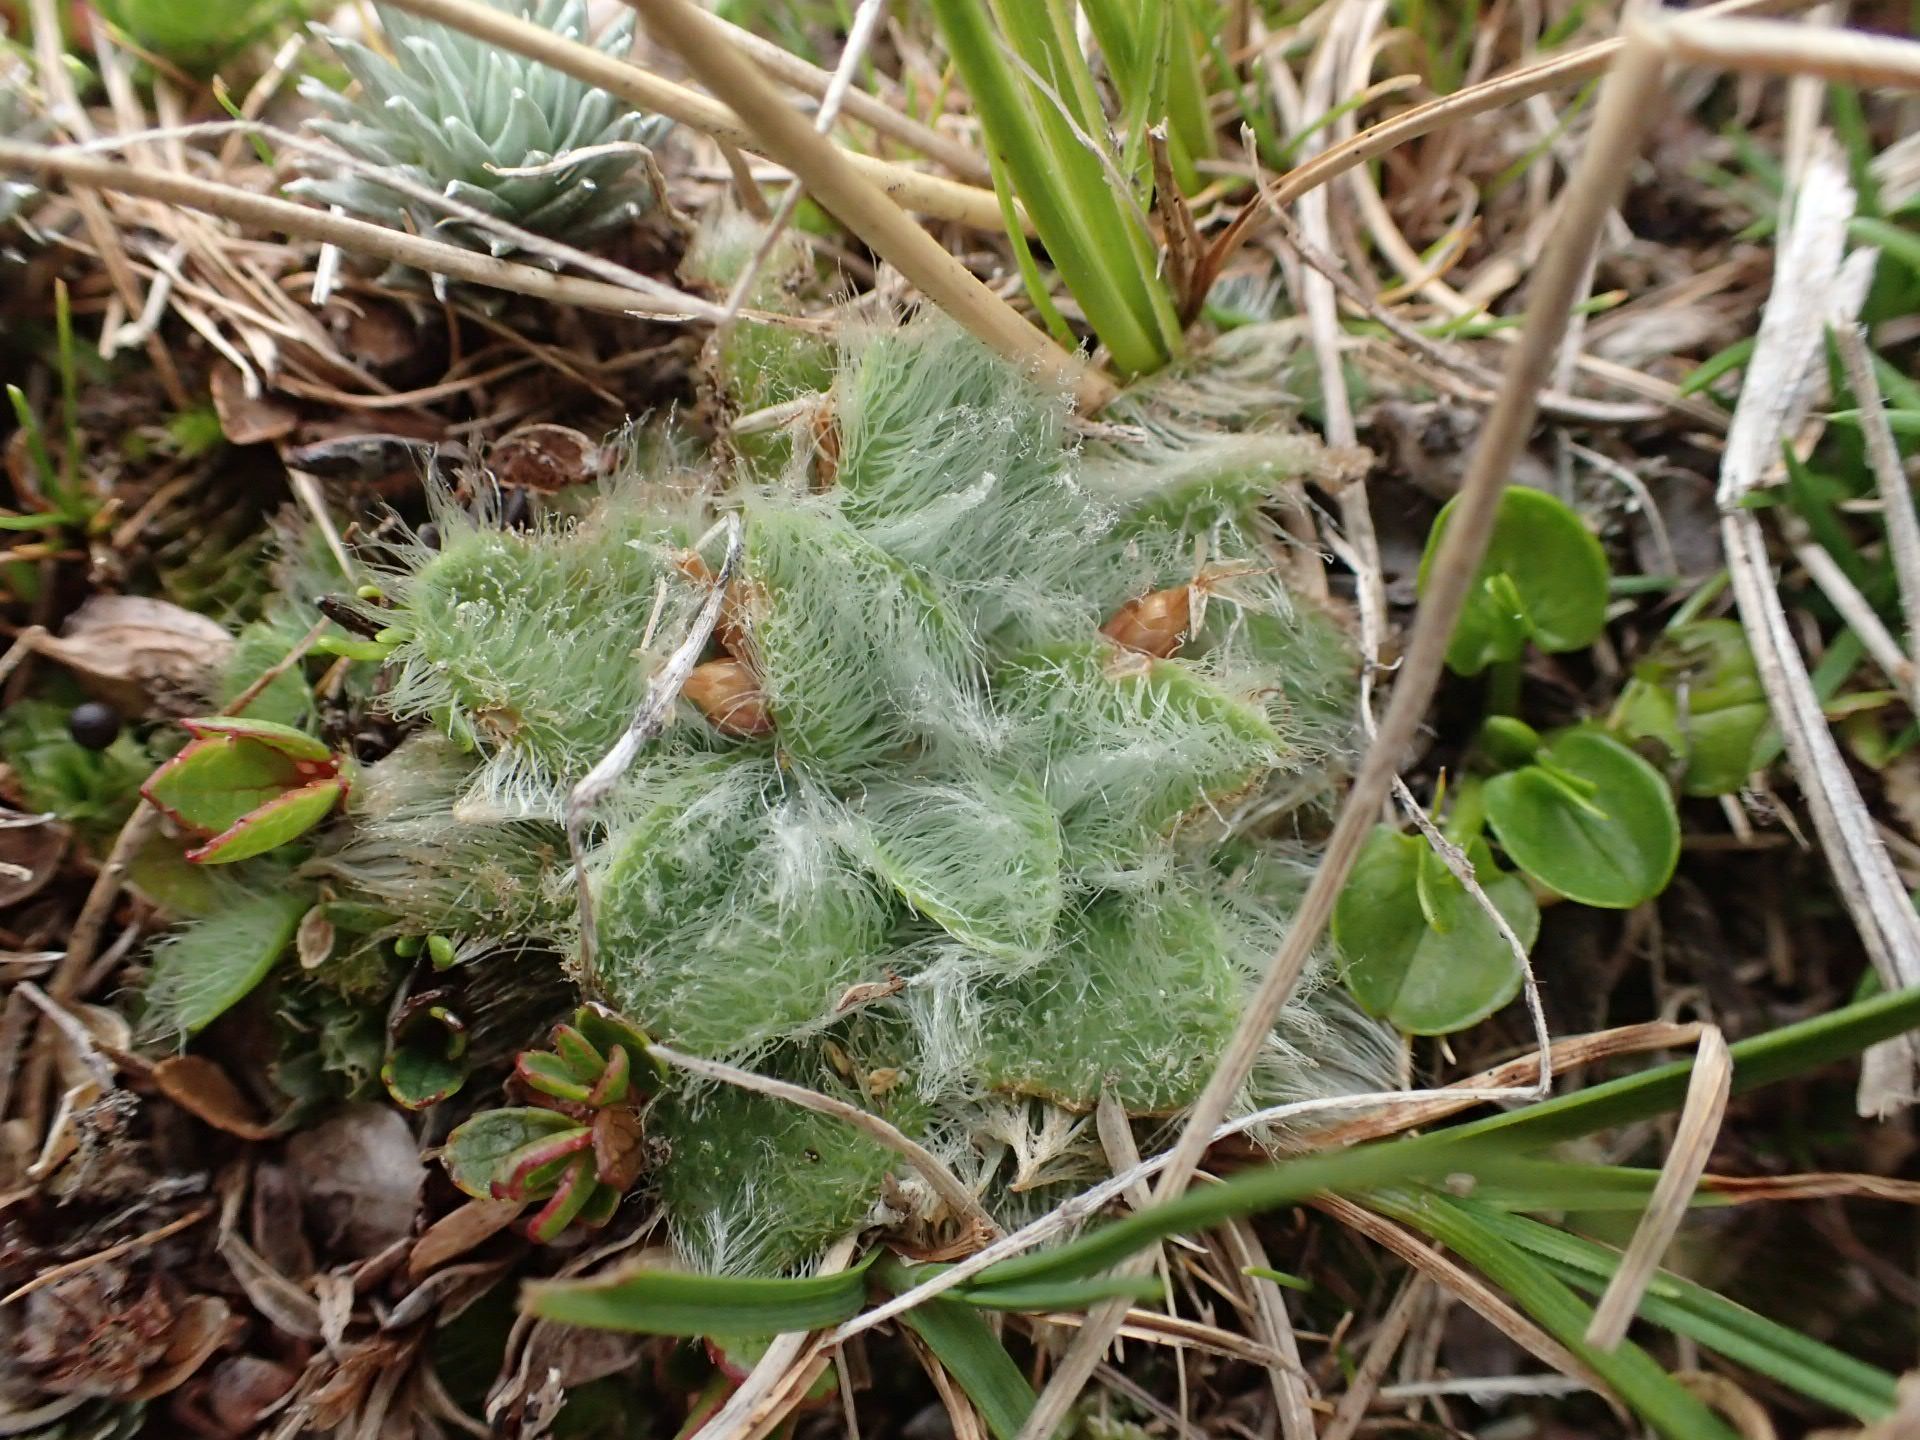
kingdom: Plantae
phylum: Tracheophyta
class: Magnoliopsida
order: Lamiales
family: Plantaginaceae
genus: Plantago
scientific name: Plantago lanigera
